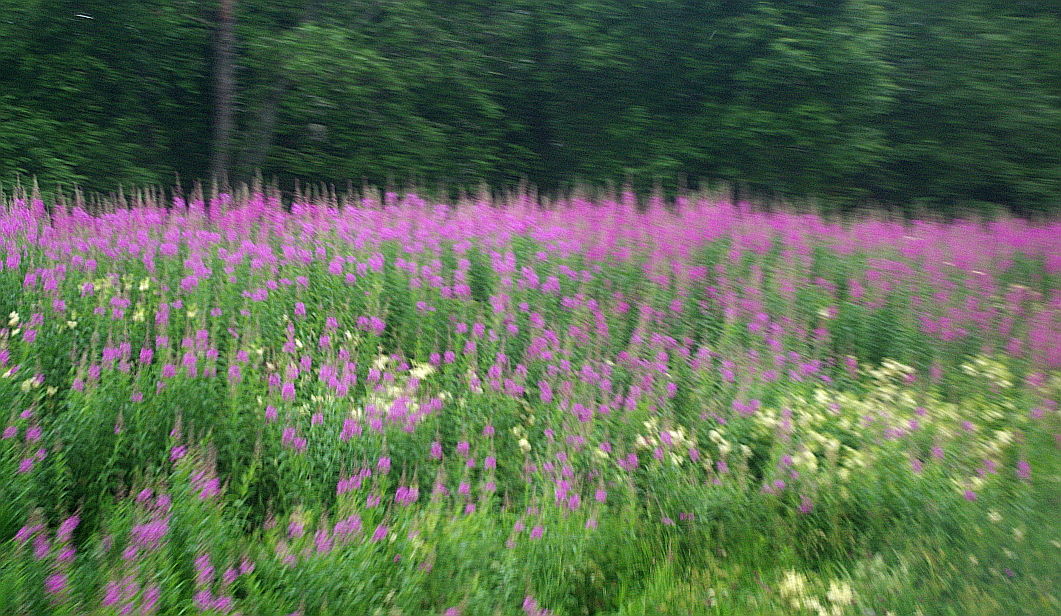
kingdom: Plantae
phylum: Tracheophyta
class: Magnoliopsida
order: Myrtales
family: Onagraceae
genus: Chamaenerion
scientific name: Chamaenerion angustifolium
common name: Fireweed
